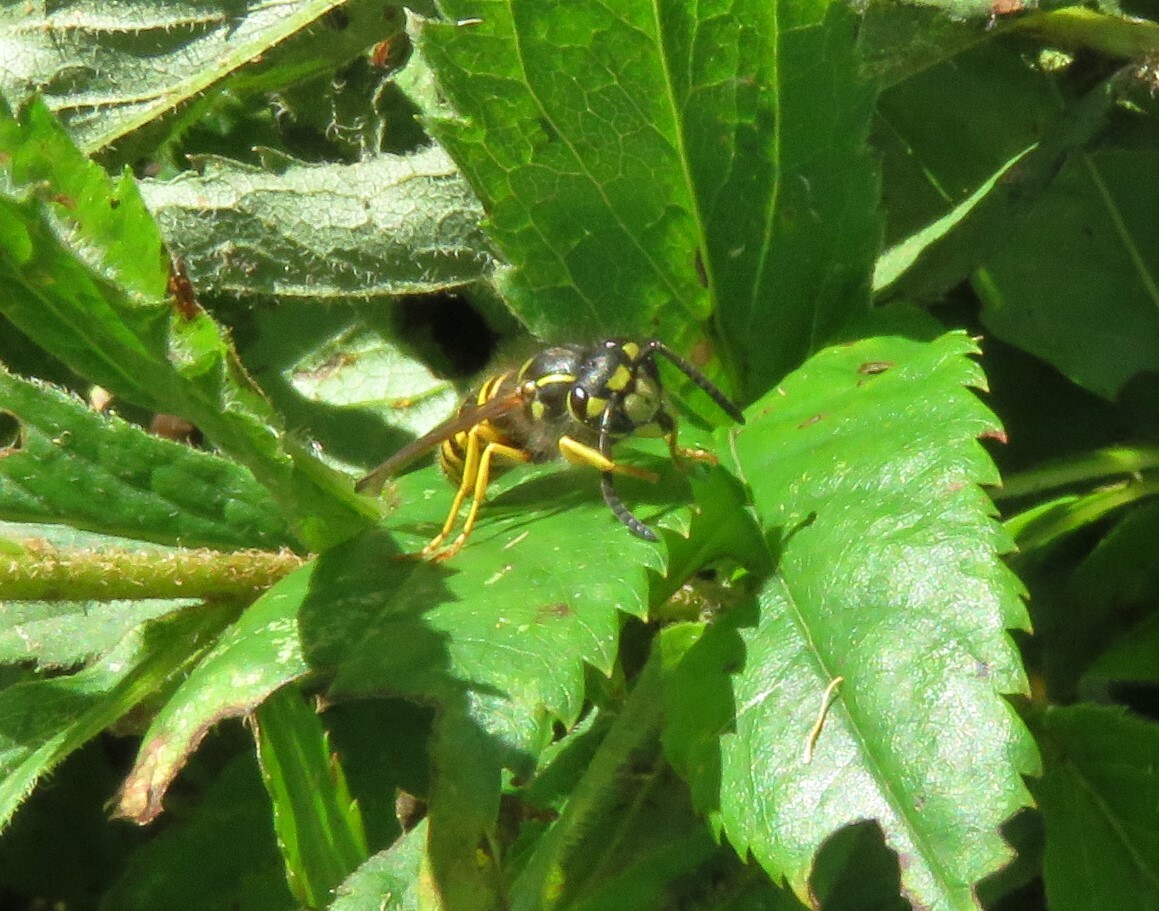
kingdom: Animalia
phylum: Arthropoda
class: Insecta
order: Hymenoptera
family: Vespidae
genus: Vespula
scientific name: Vespula maculifrons
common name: Eastern yellowjacket
